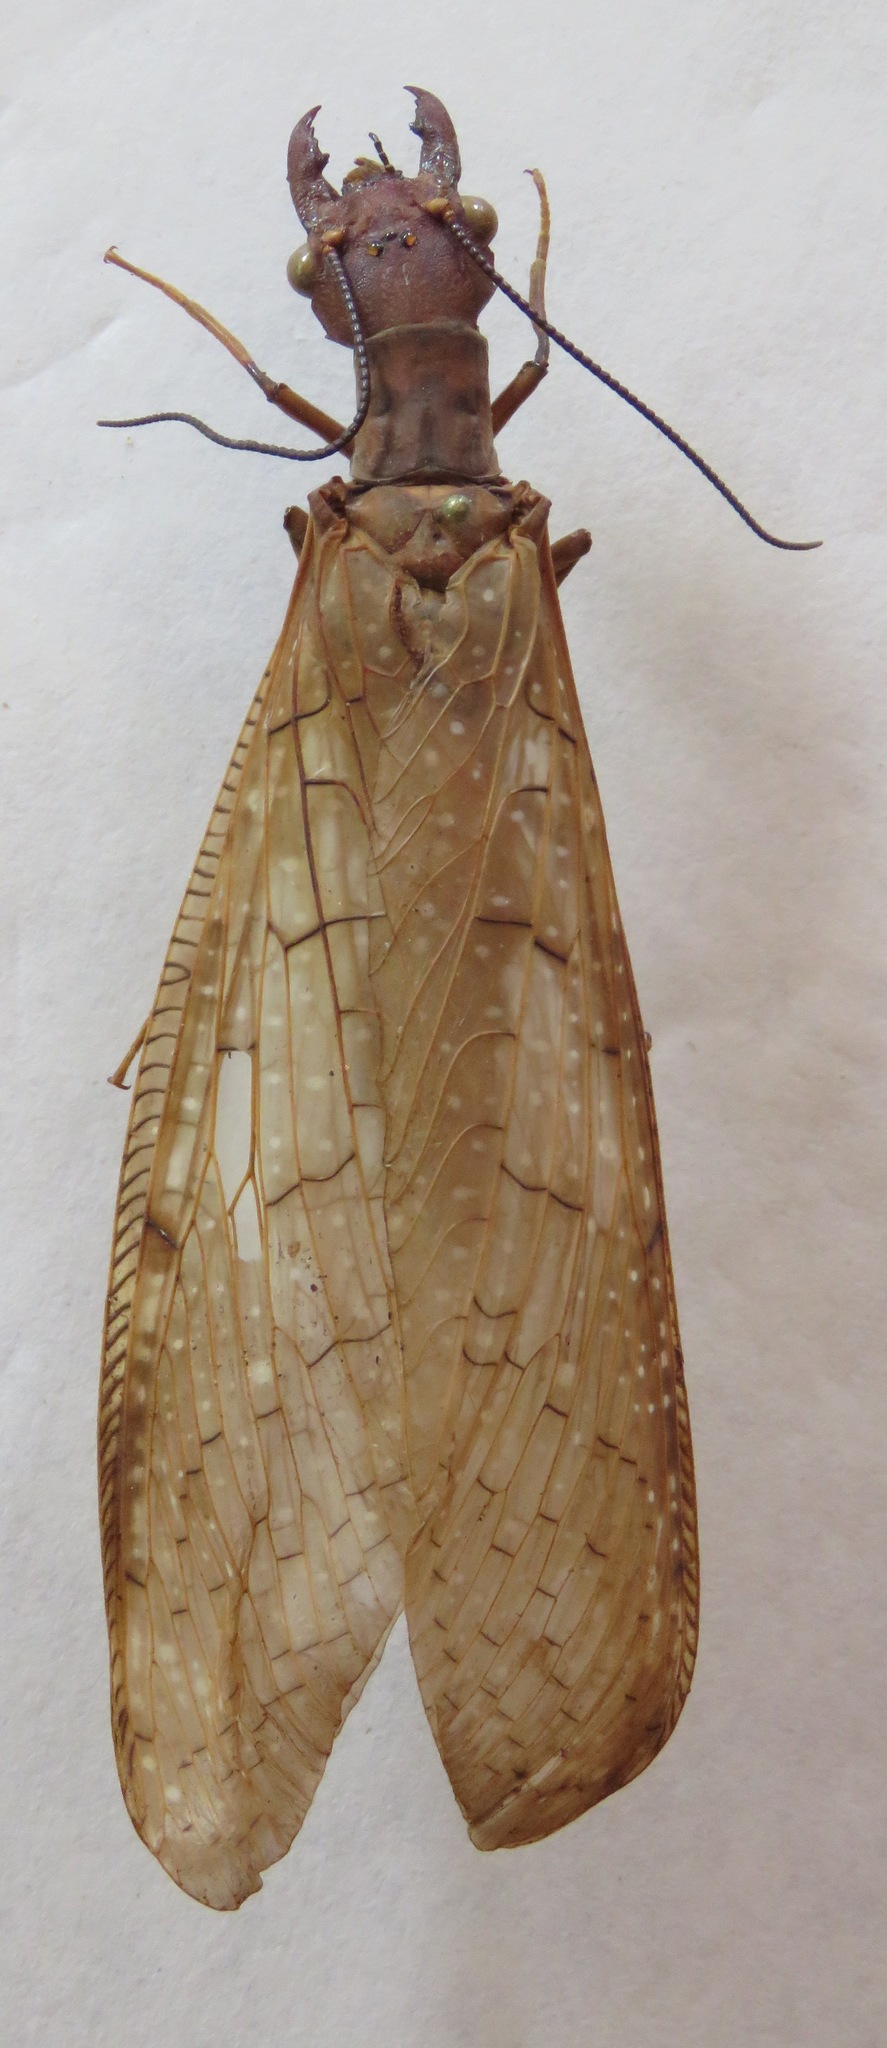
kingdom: Animalia
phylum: Arthropoda
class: Insecta
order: Megaloptera
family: Corydalidae
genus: Corydalus
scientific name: Corydalus peruvianus
